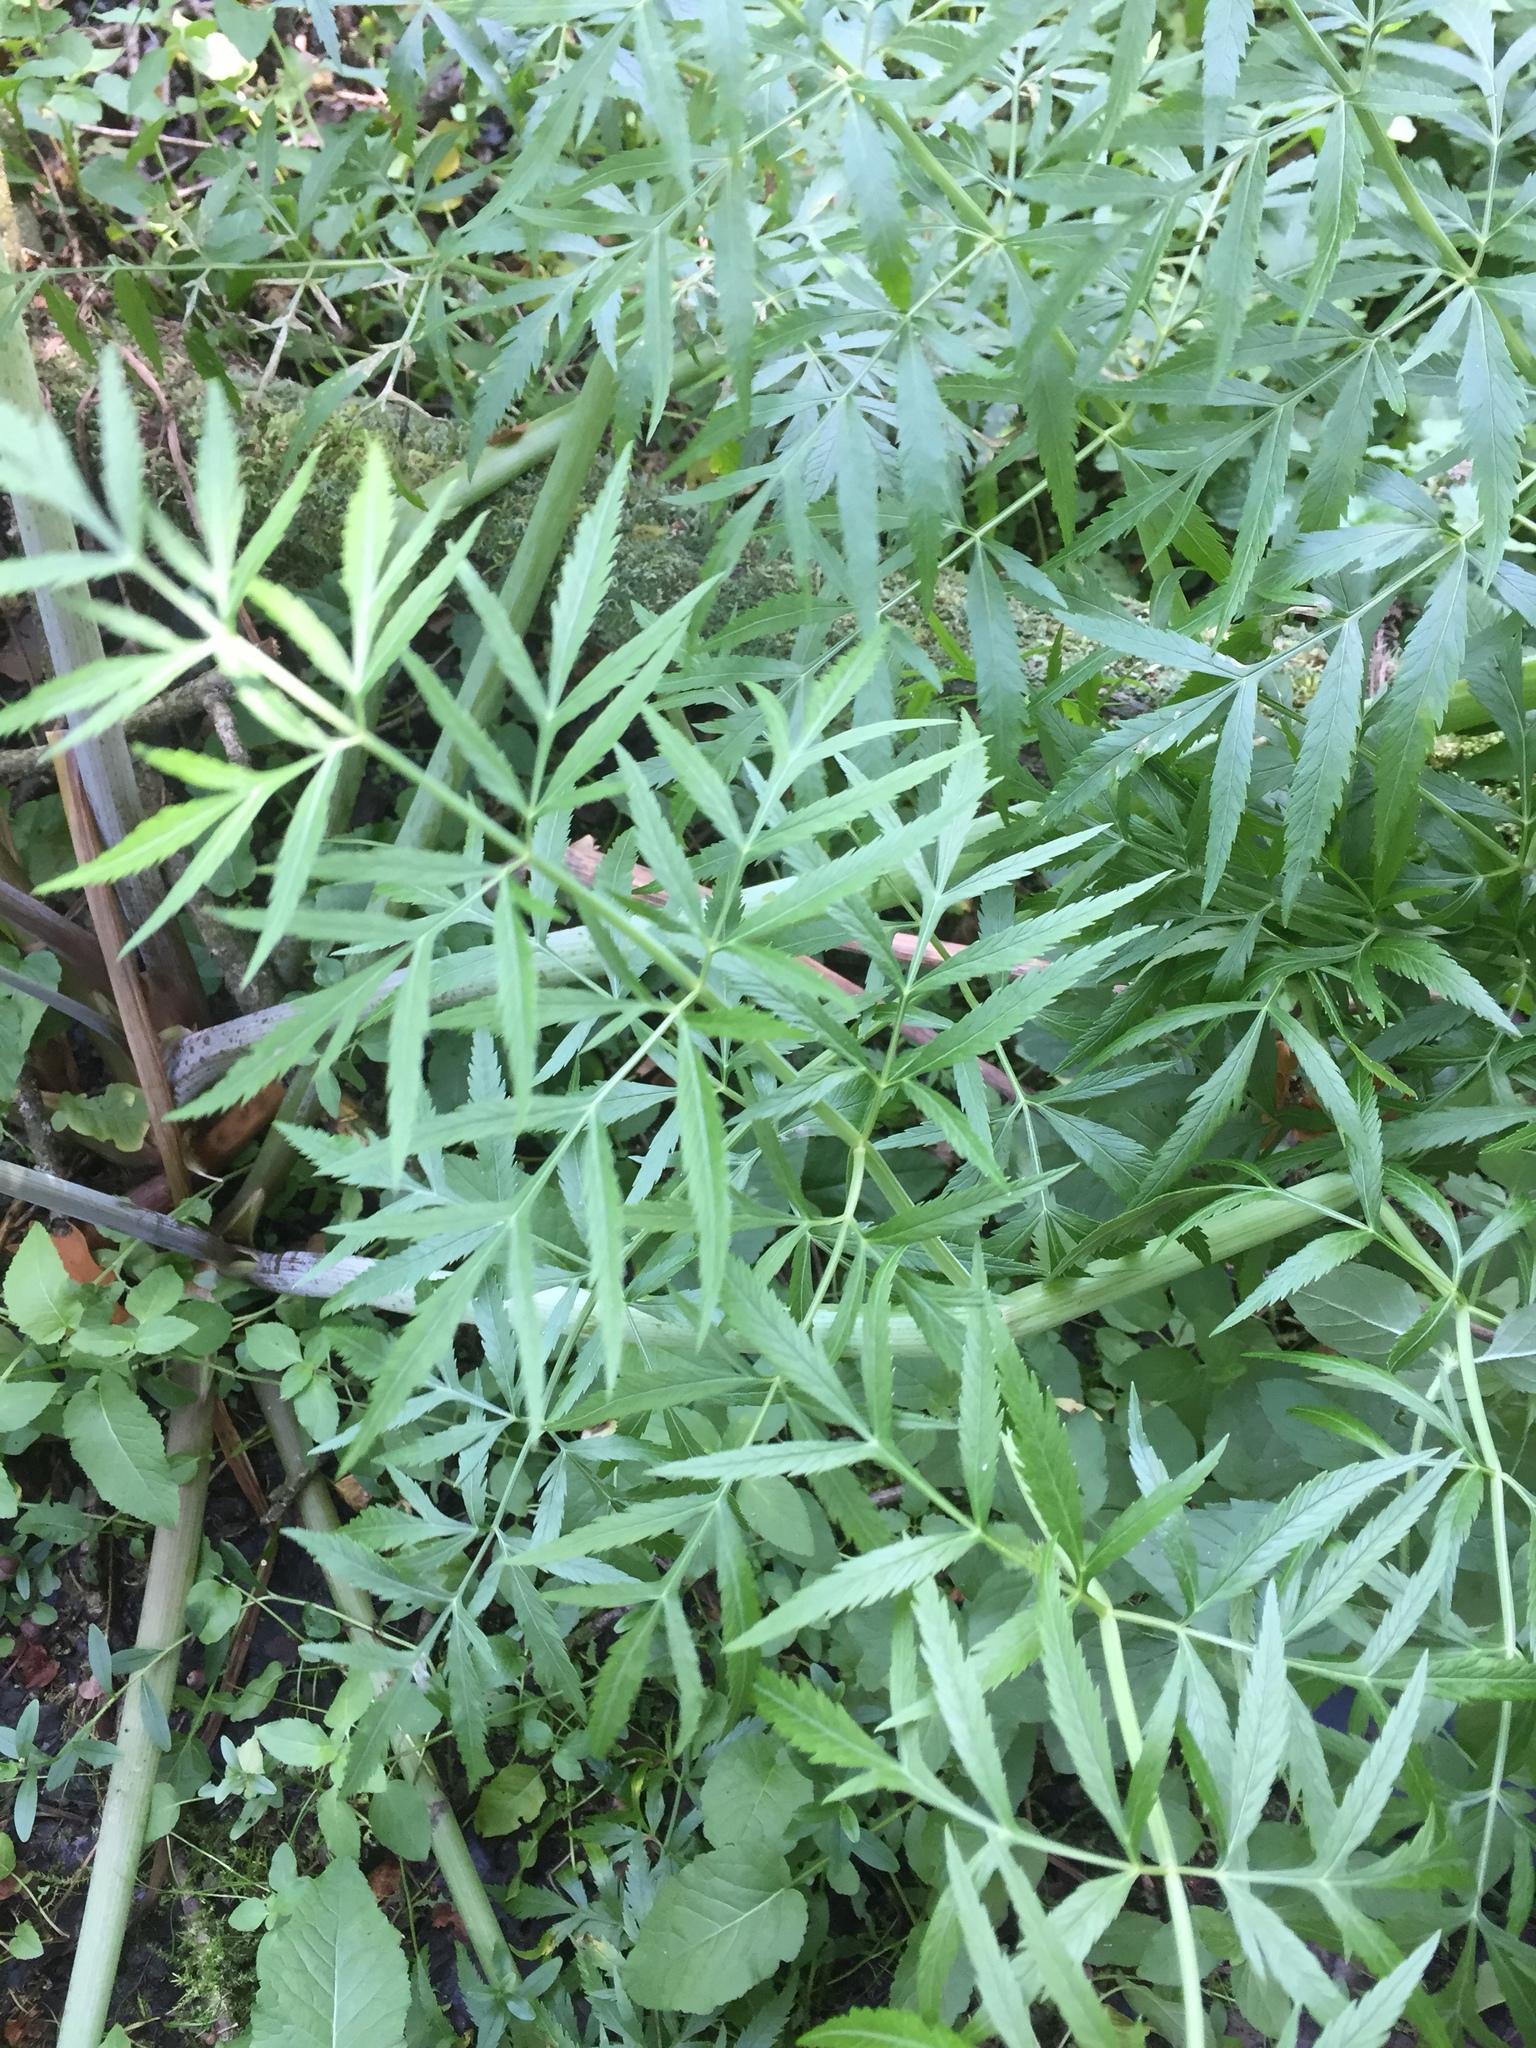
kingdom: Plantae
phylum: Tracheophyta
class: Magnoliopsida
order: Apiales
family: Apiaceae
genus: Cicuta
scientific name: Cicuta virosa
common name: Cowbane
